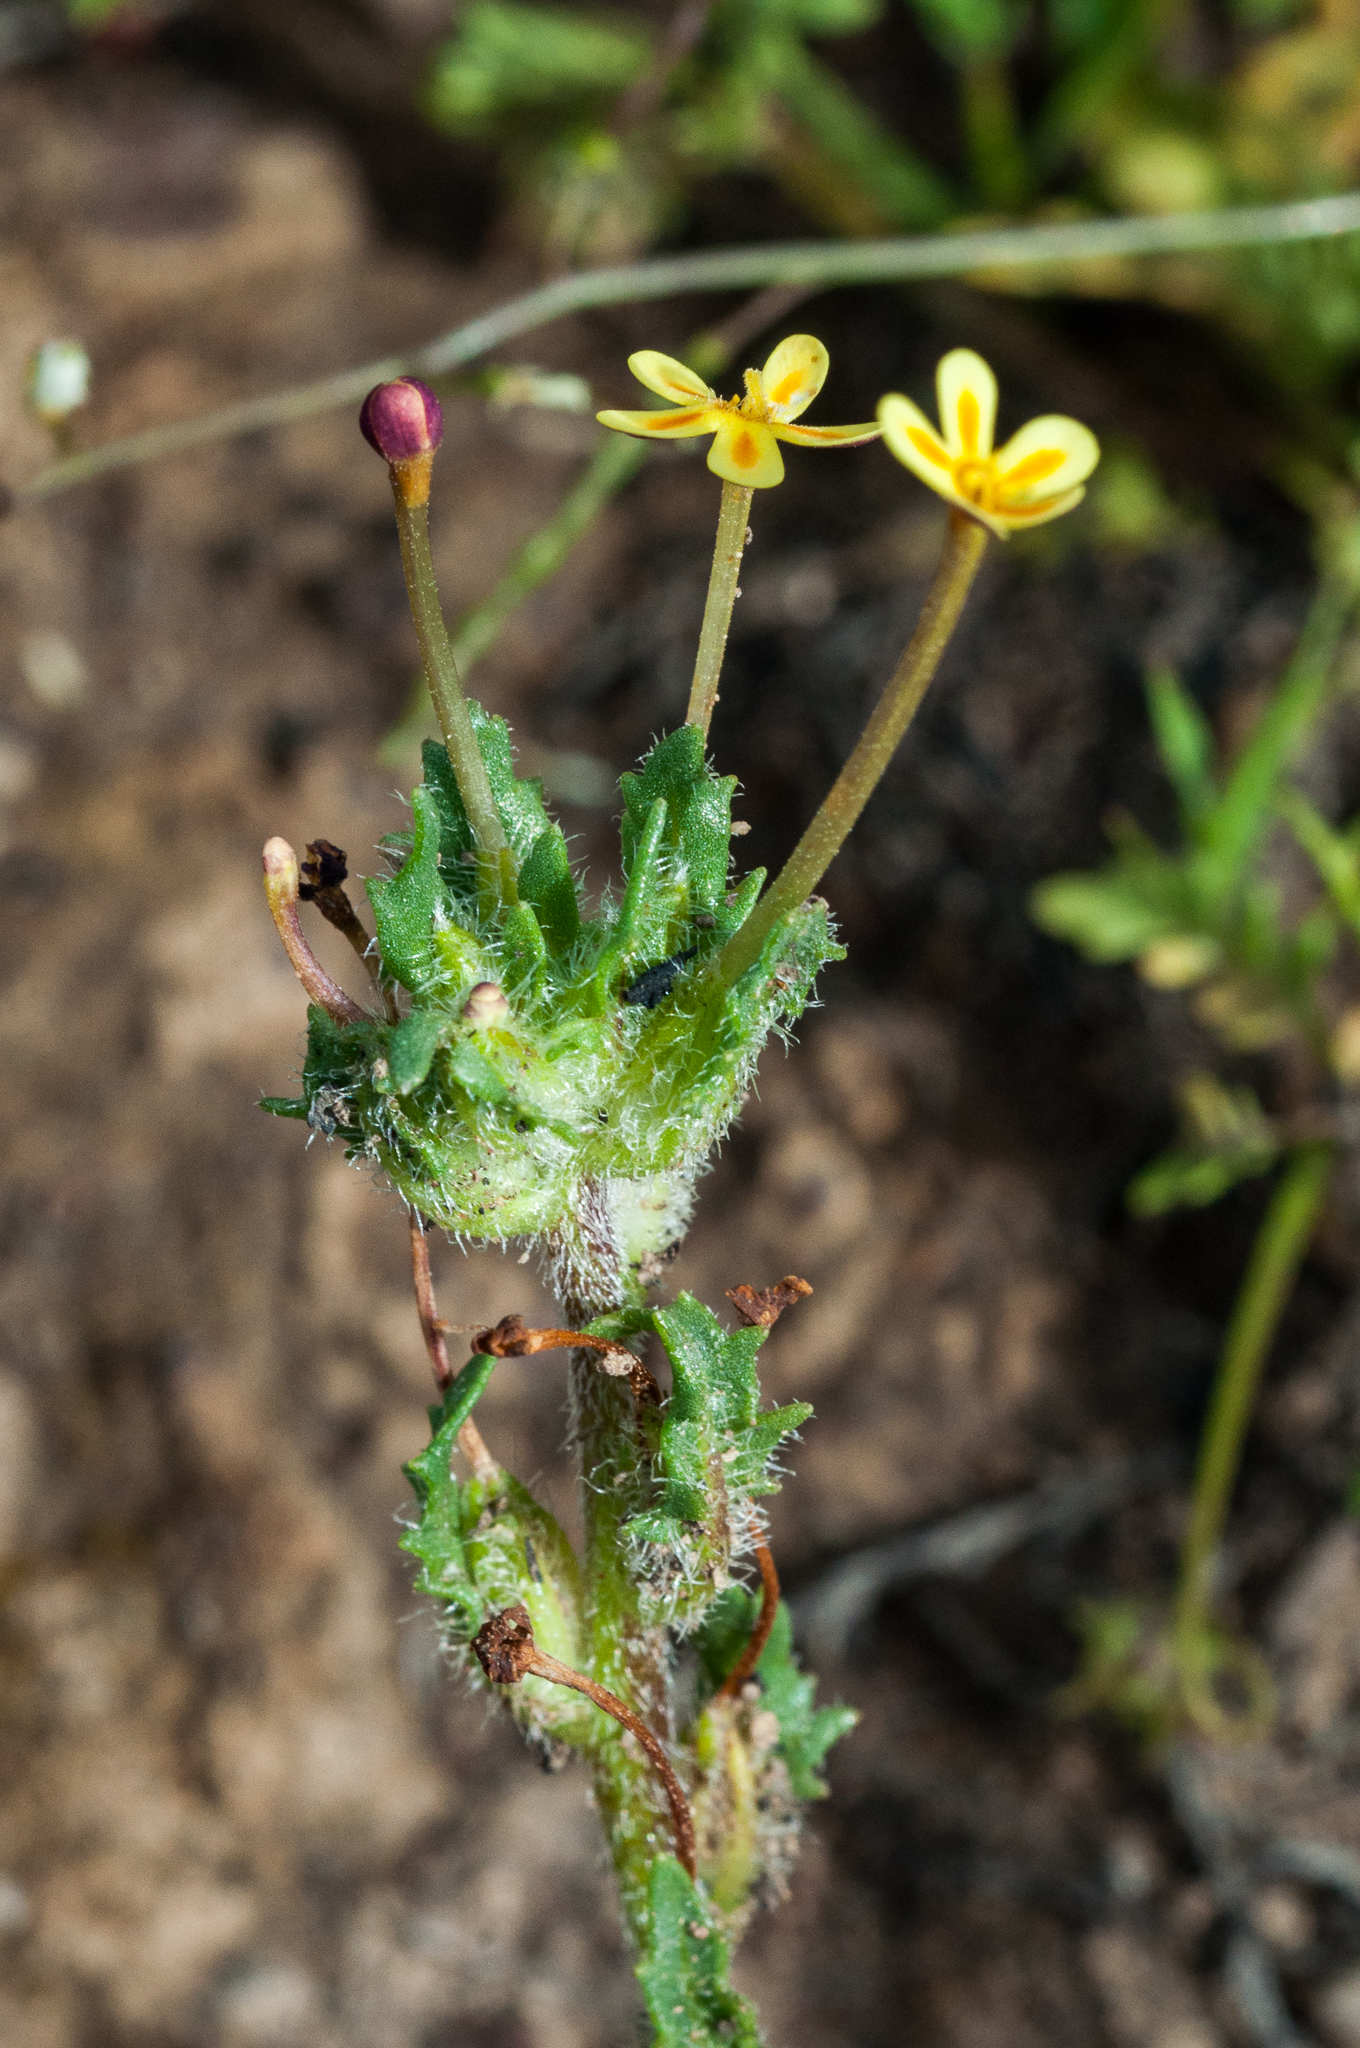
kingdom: Plantae
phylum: Tracheophyta
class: Magnoliopsida
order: Lamiales
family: Scrophulariaceae
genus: Zaluzianskya
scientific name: Zaluzianskya divaricata
